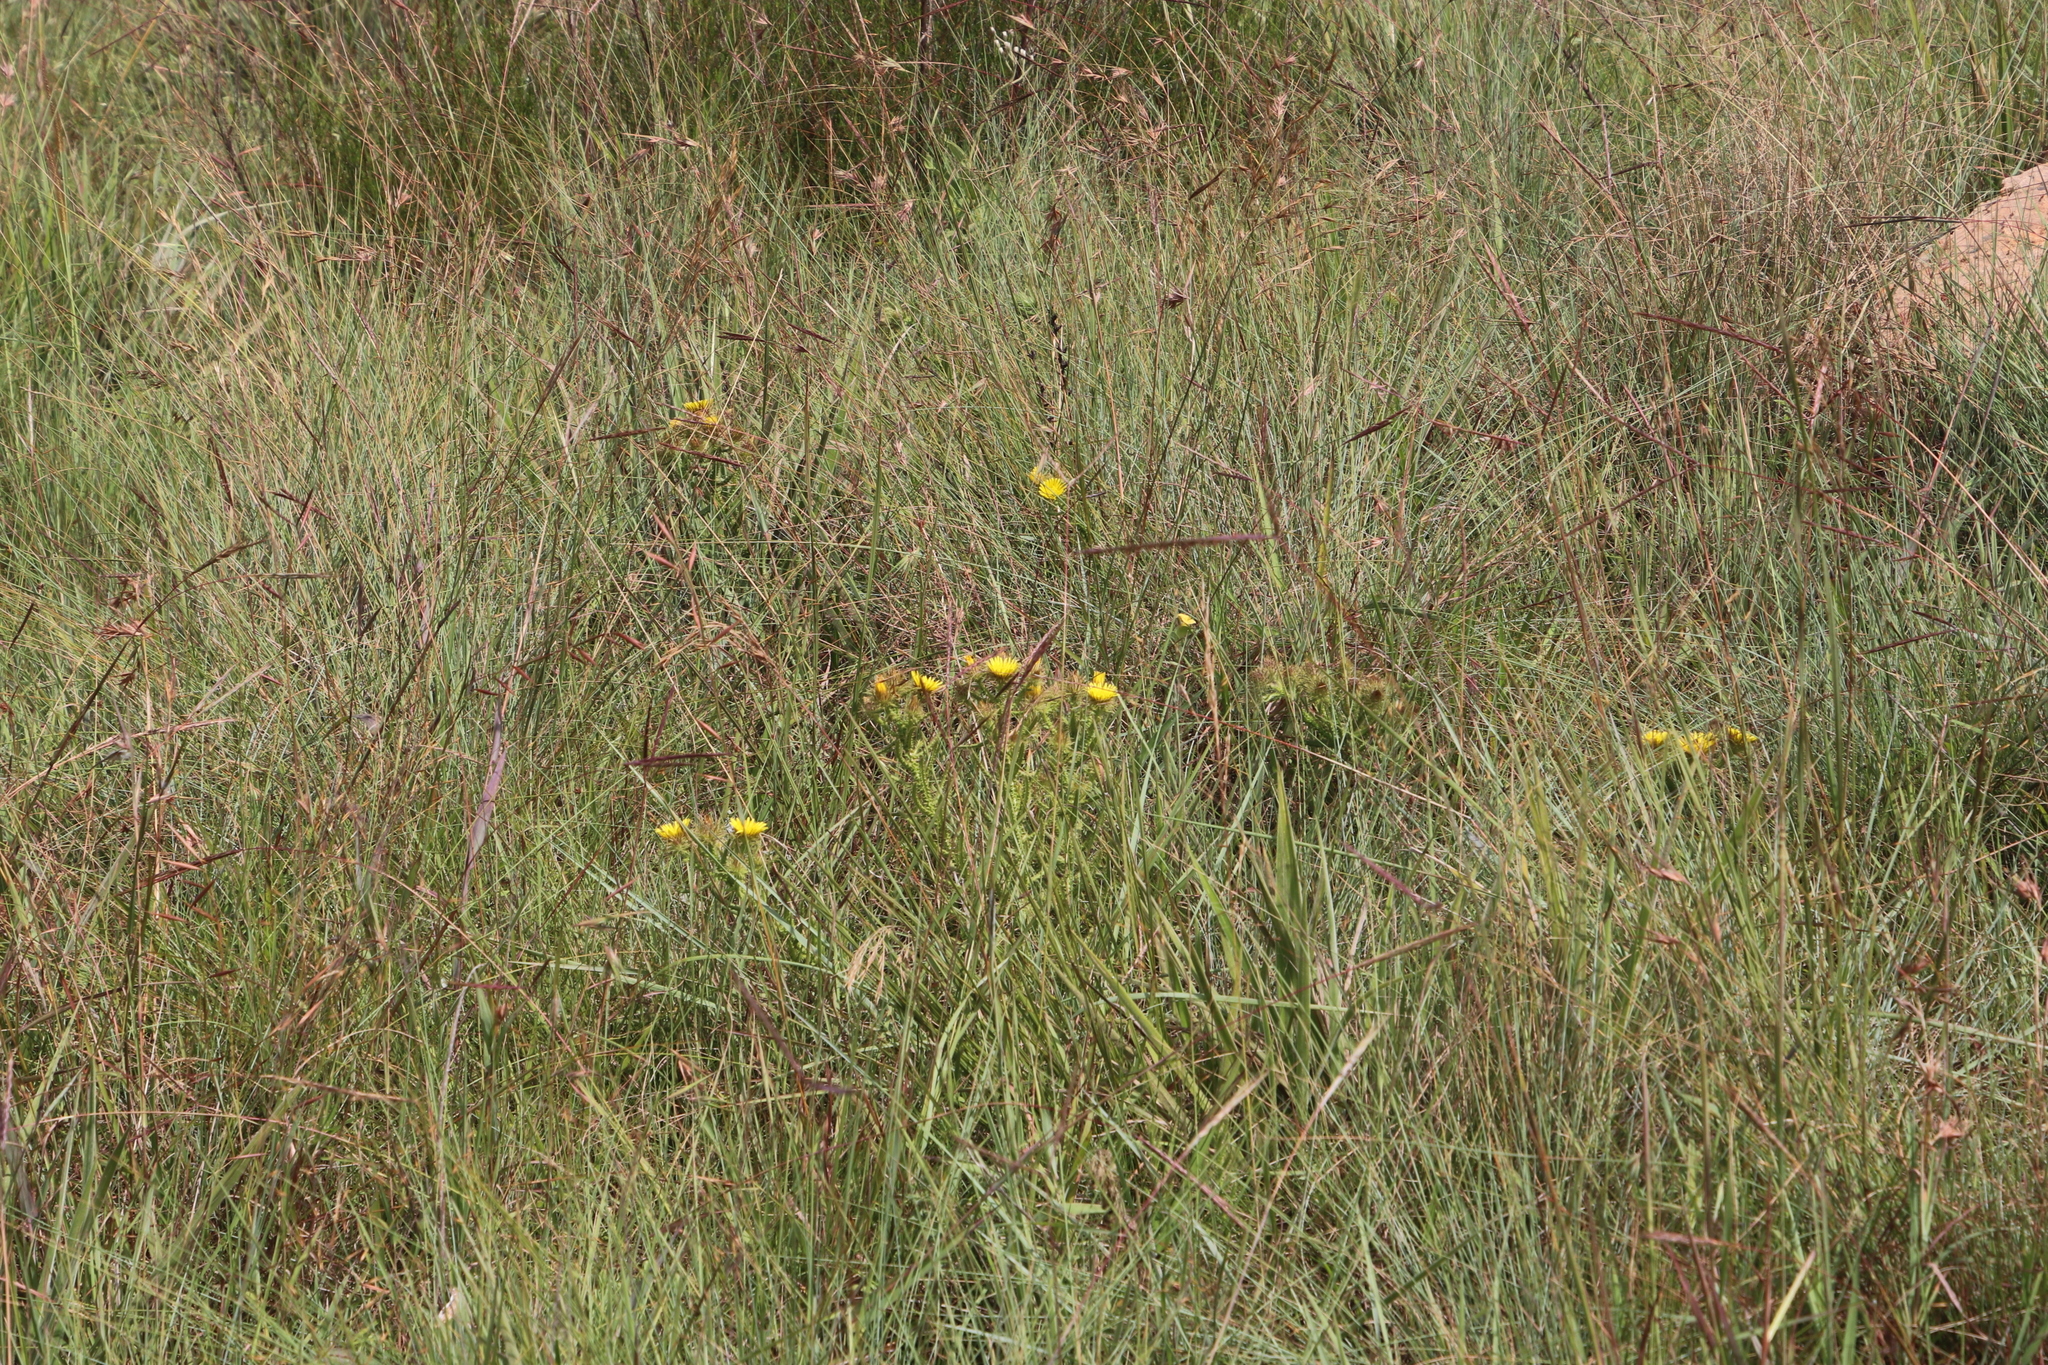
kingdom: Plantae
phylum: Tracheophyta
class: Magnoliopsida
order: Asterales
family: Asteraceae
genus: Berkheya
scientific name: Berkheya echinacea
